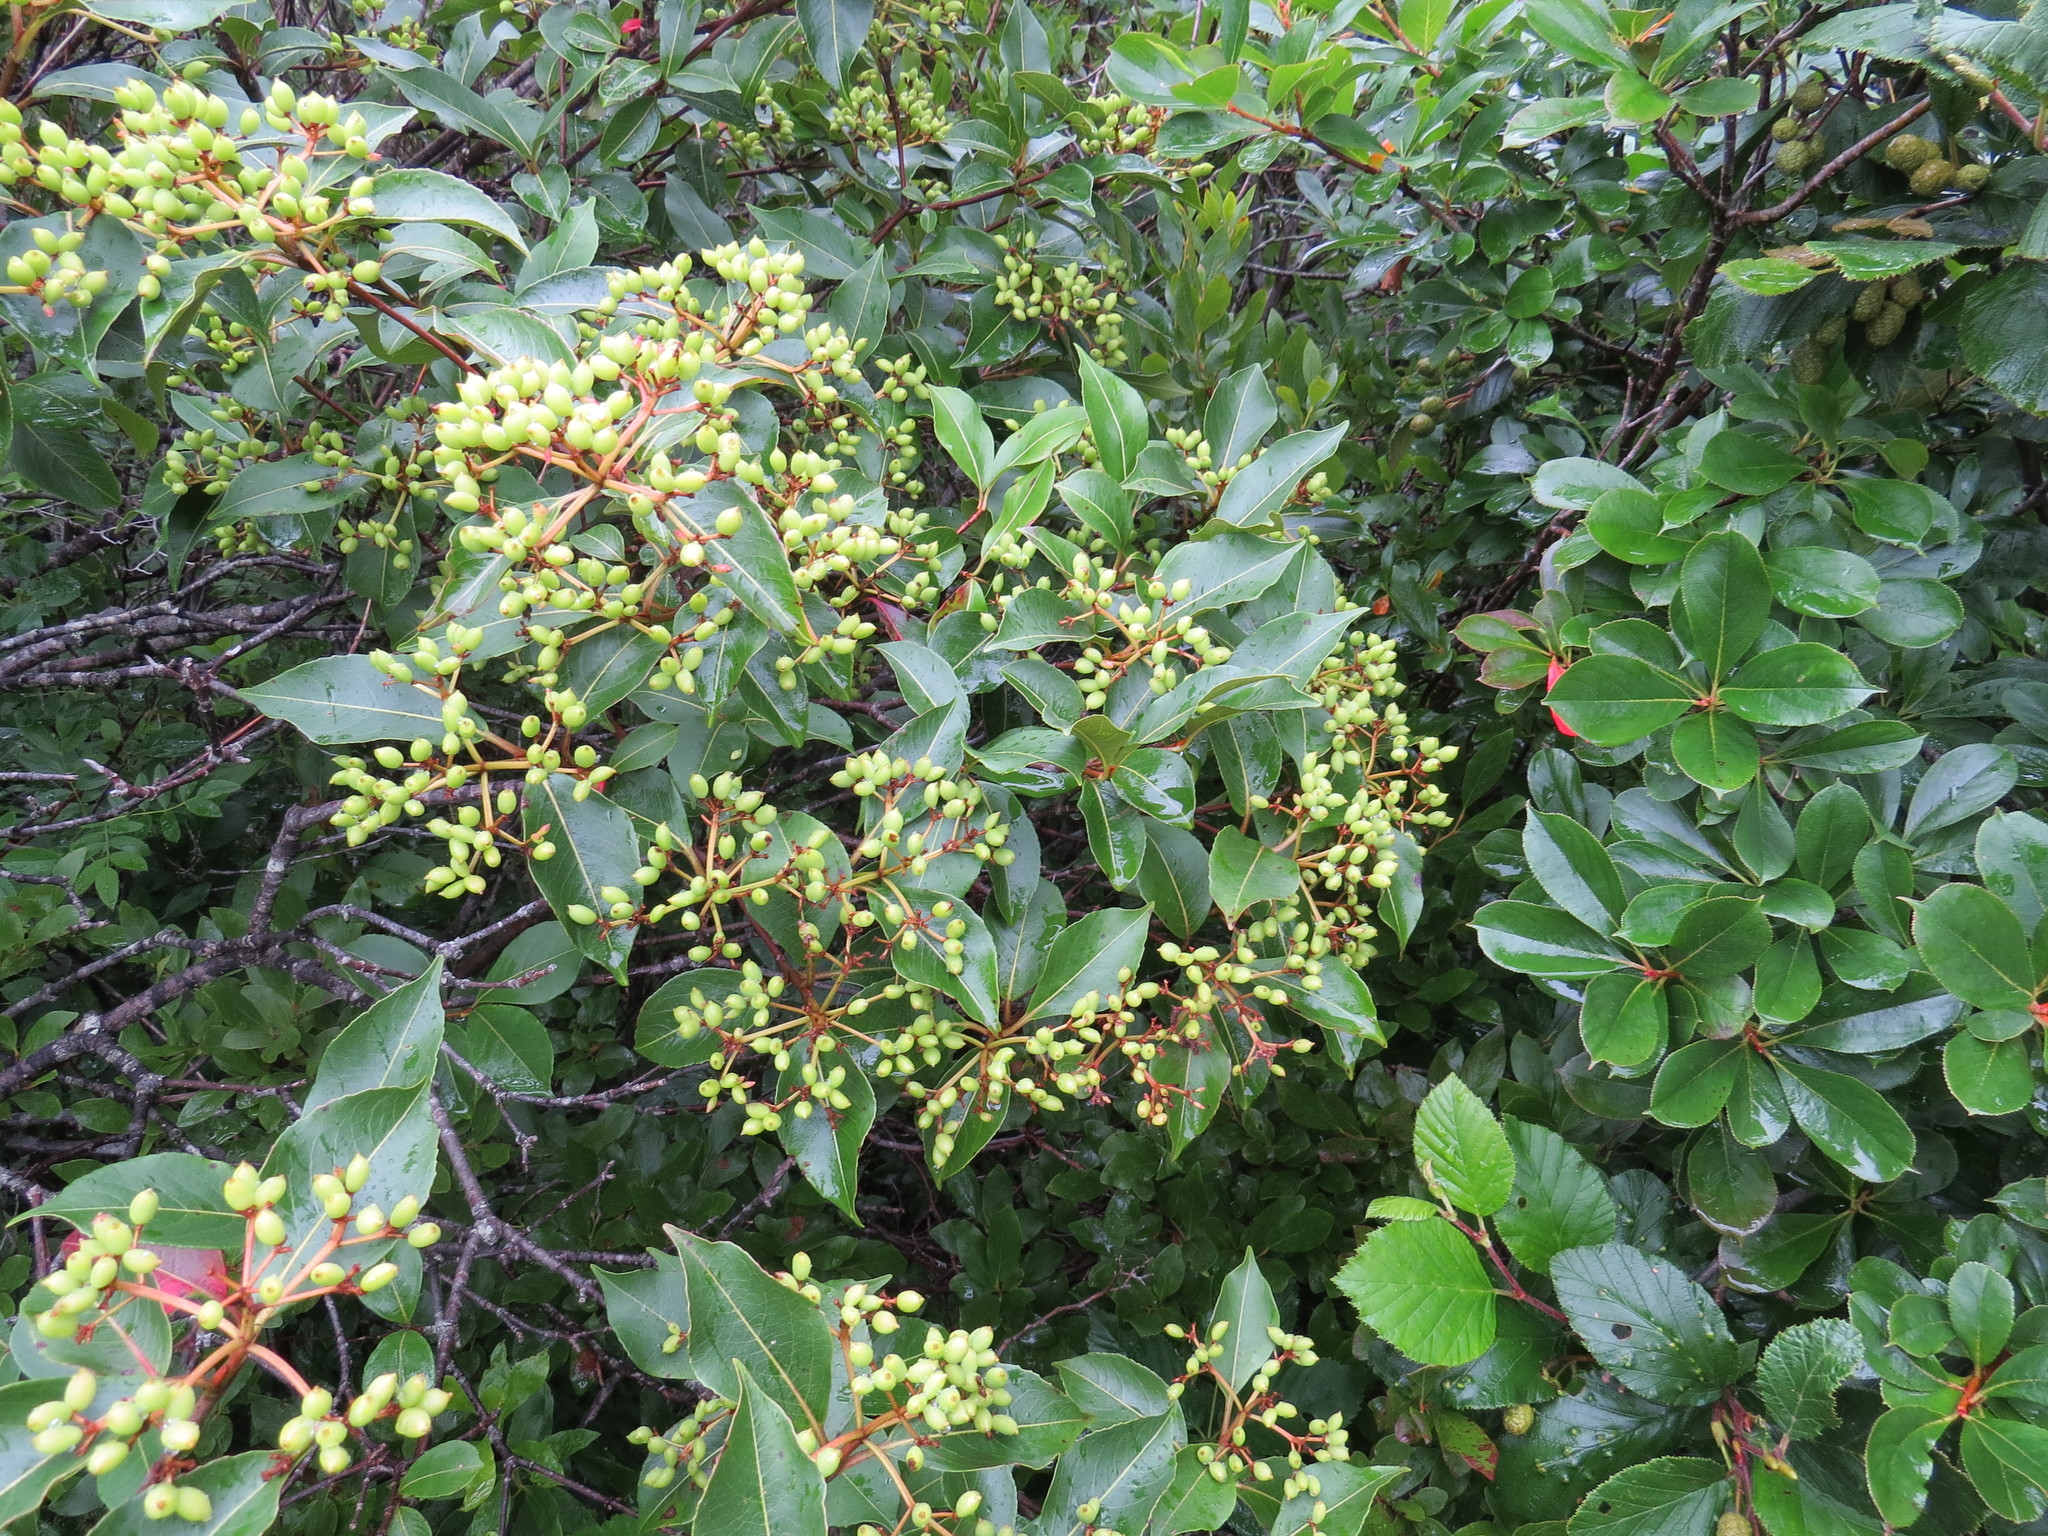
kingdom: Plantae
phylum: Tracheophyta
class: Magnoliopsida
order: Dipsacales
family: Viburnaceae
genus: Viburnum
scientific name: Viburnum cassinoides
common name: Swamp haw
